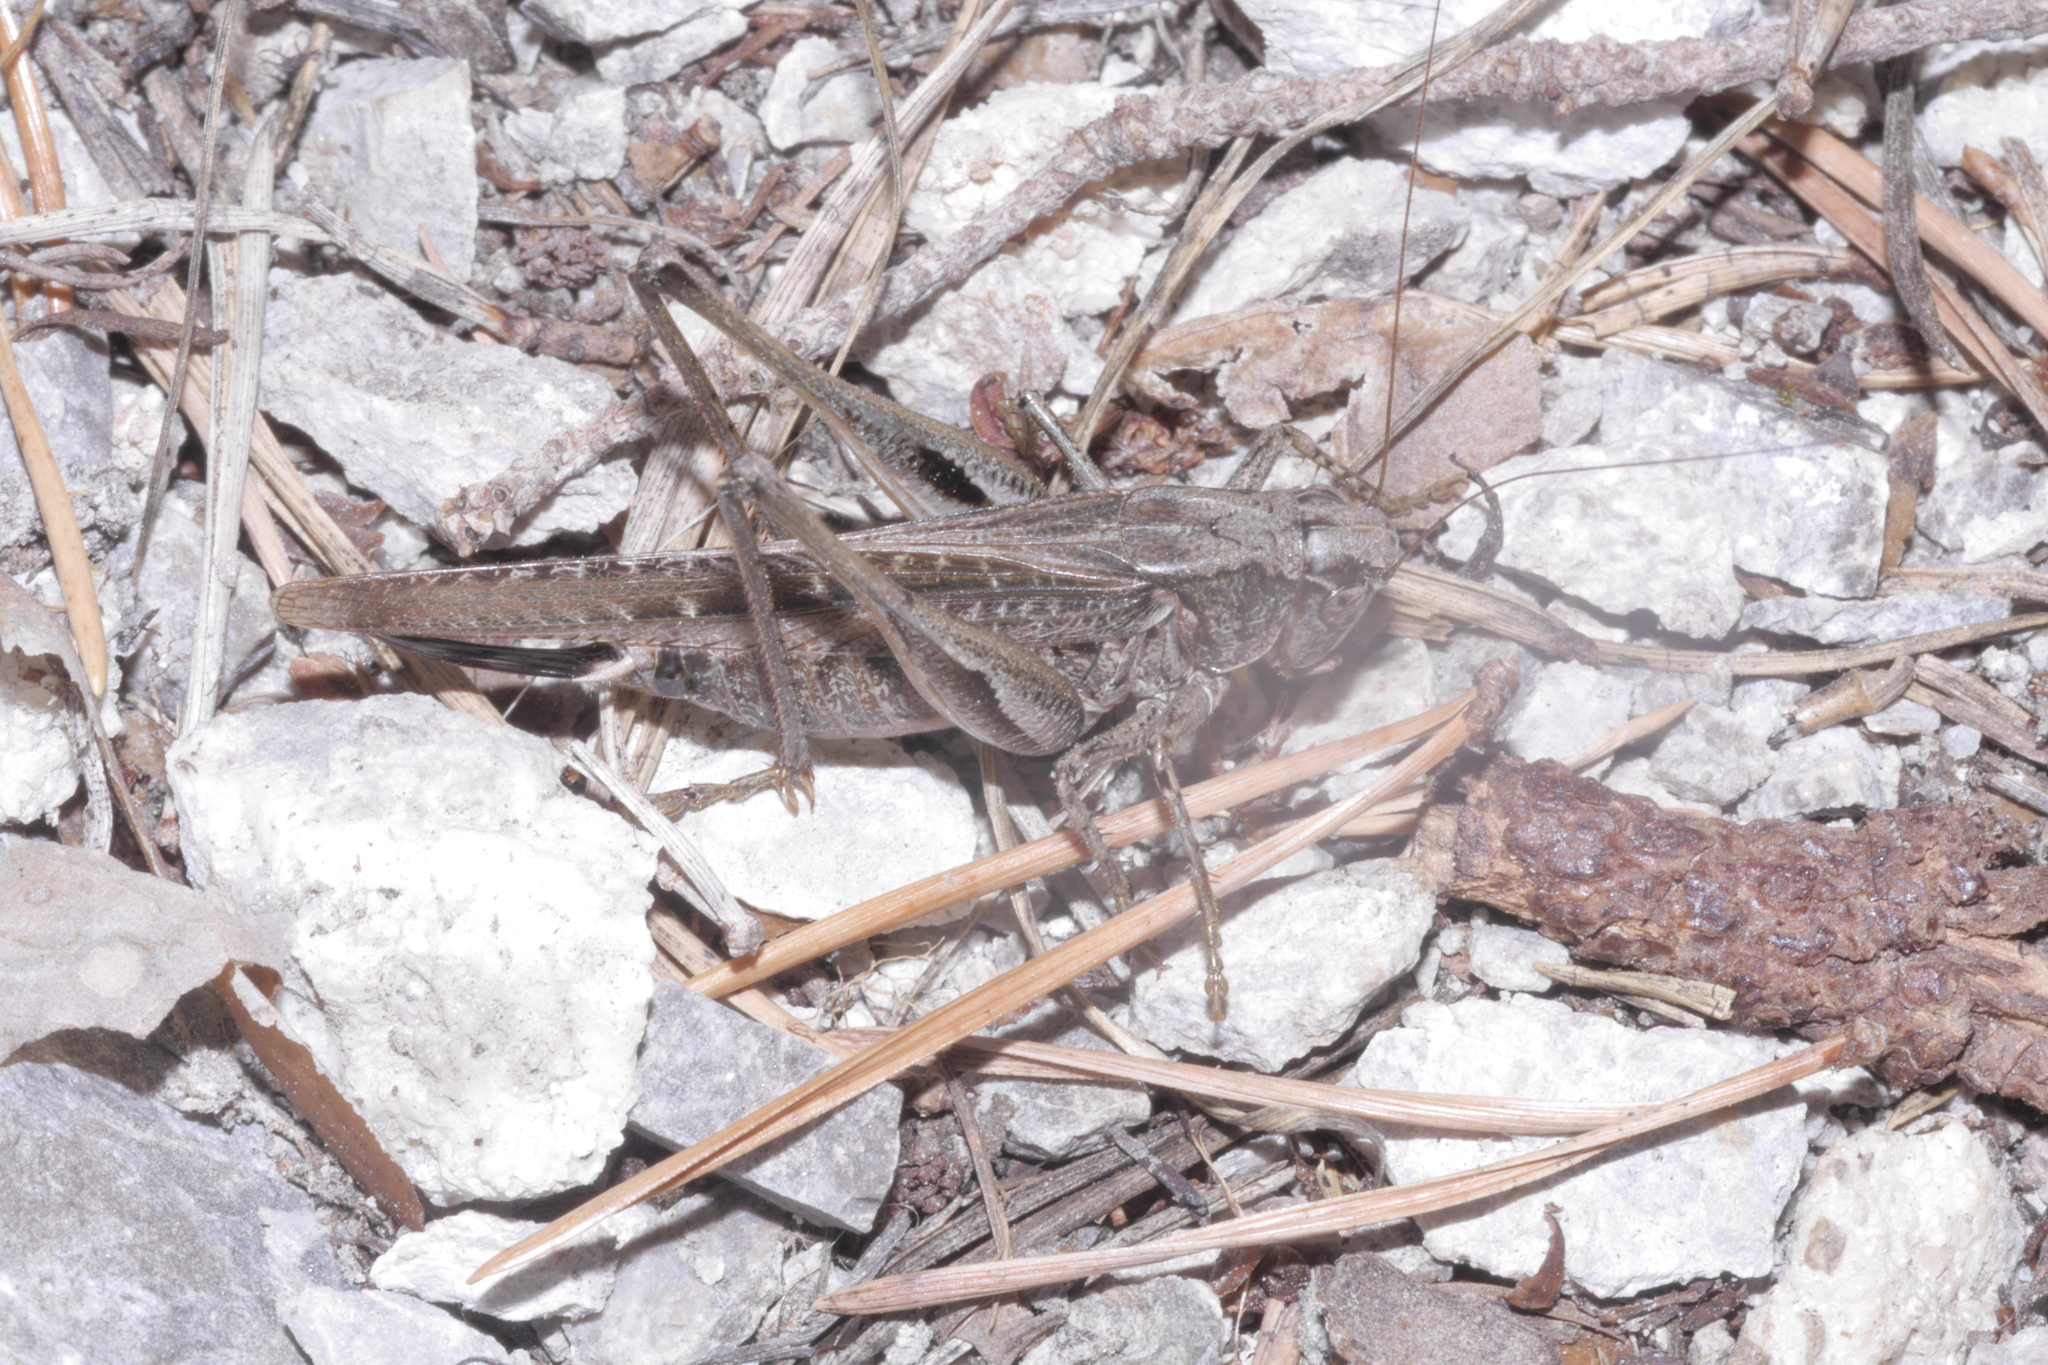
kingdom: Animalia
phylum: Arthropoda
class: Insecta
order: Orthoptera
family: Tettigoniidae
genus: Platycleis
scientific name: Platycleis grisea
